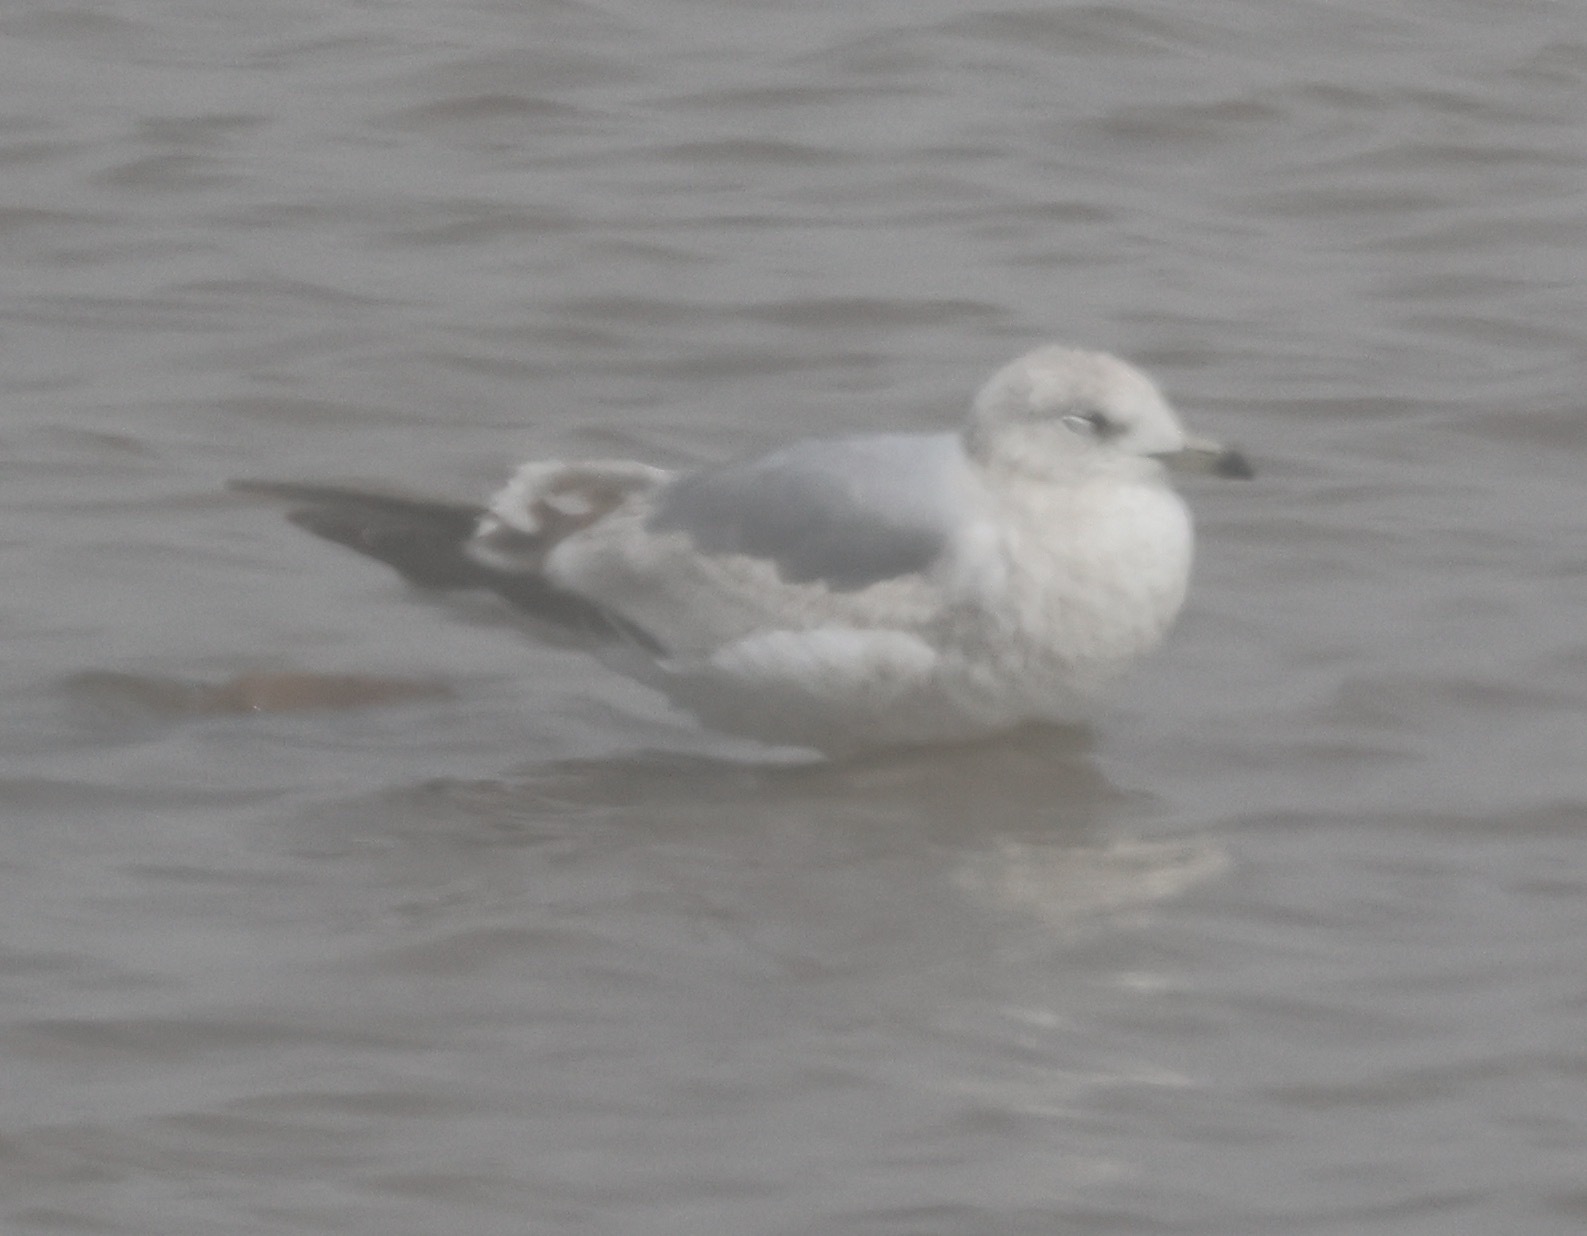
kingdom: Animalia
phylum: Chordata
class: Aves
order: Charadriiformes
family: Laridae
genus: Larus
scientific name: Larus canus
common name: Mew gull
